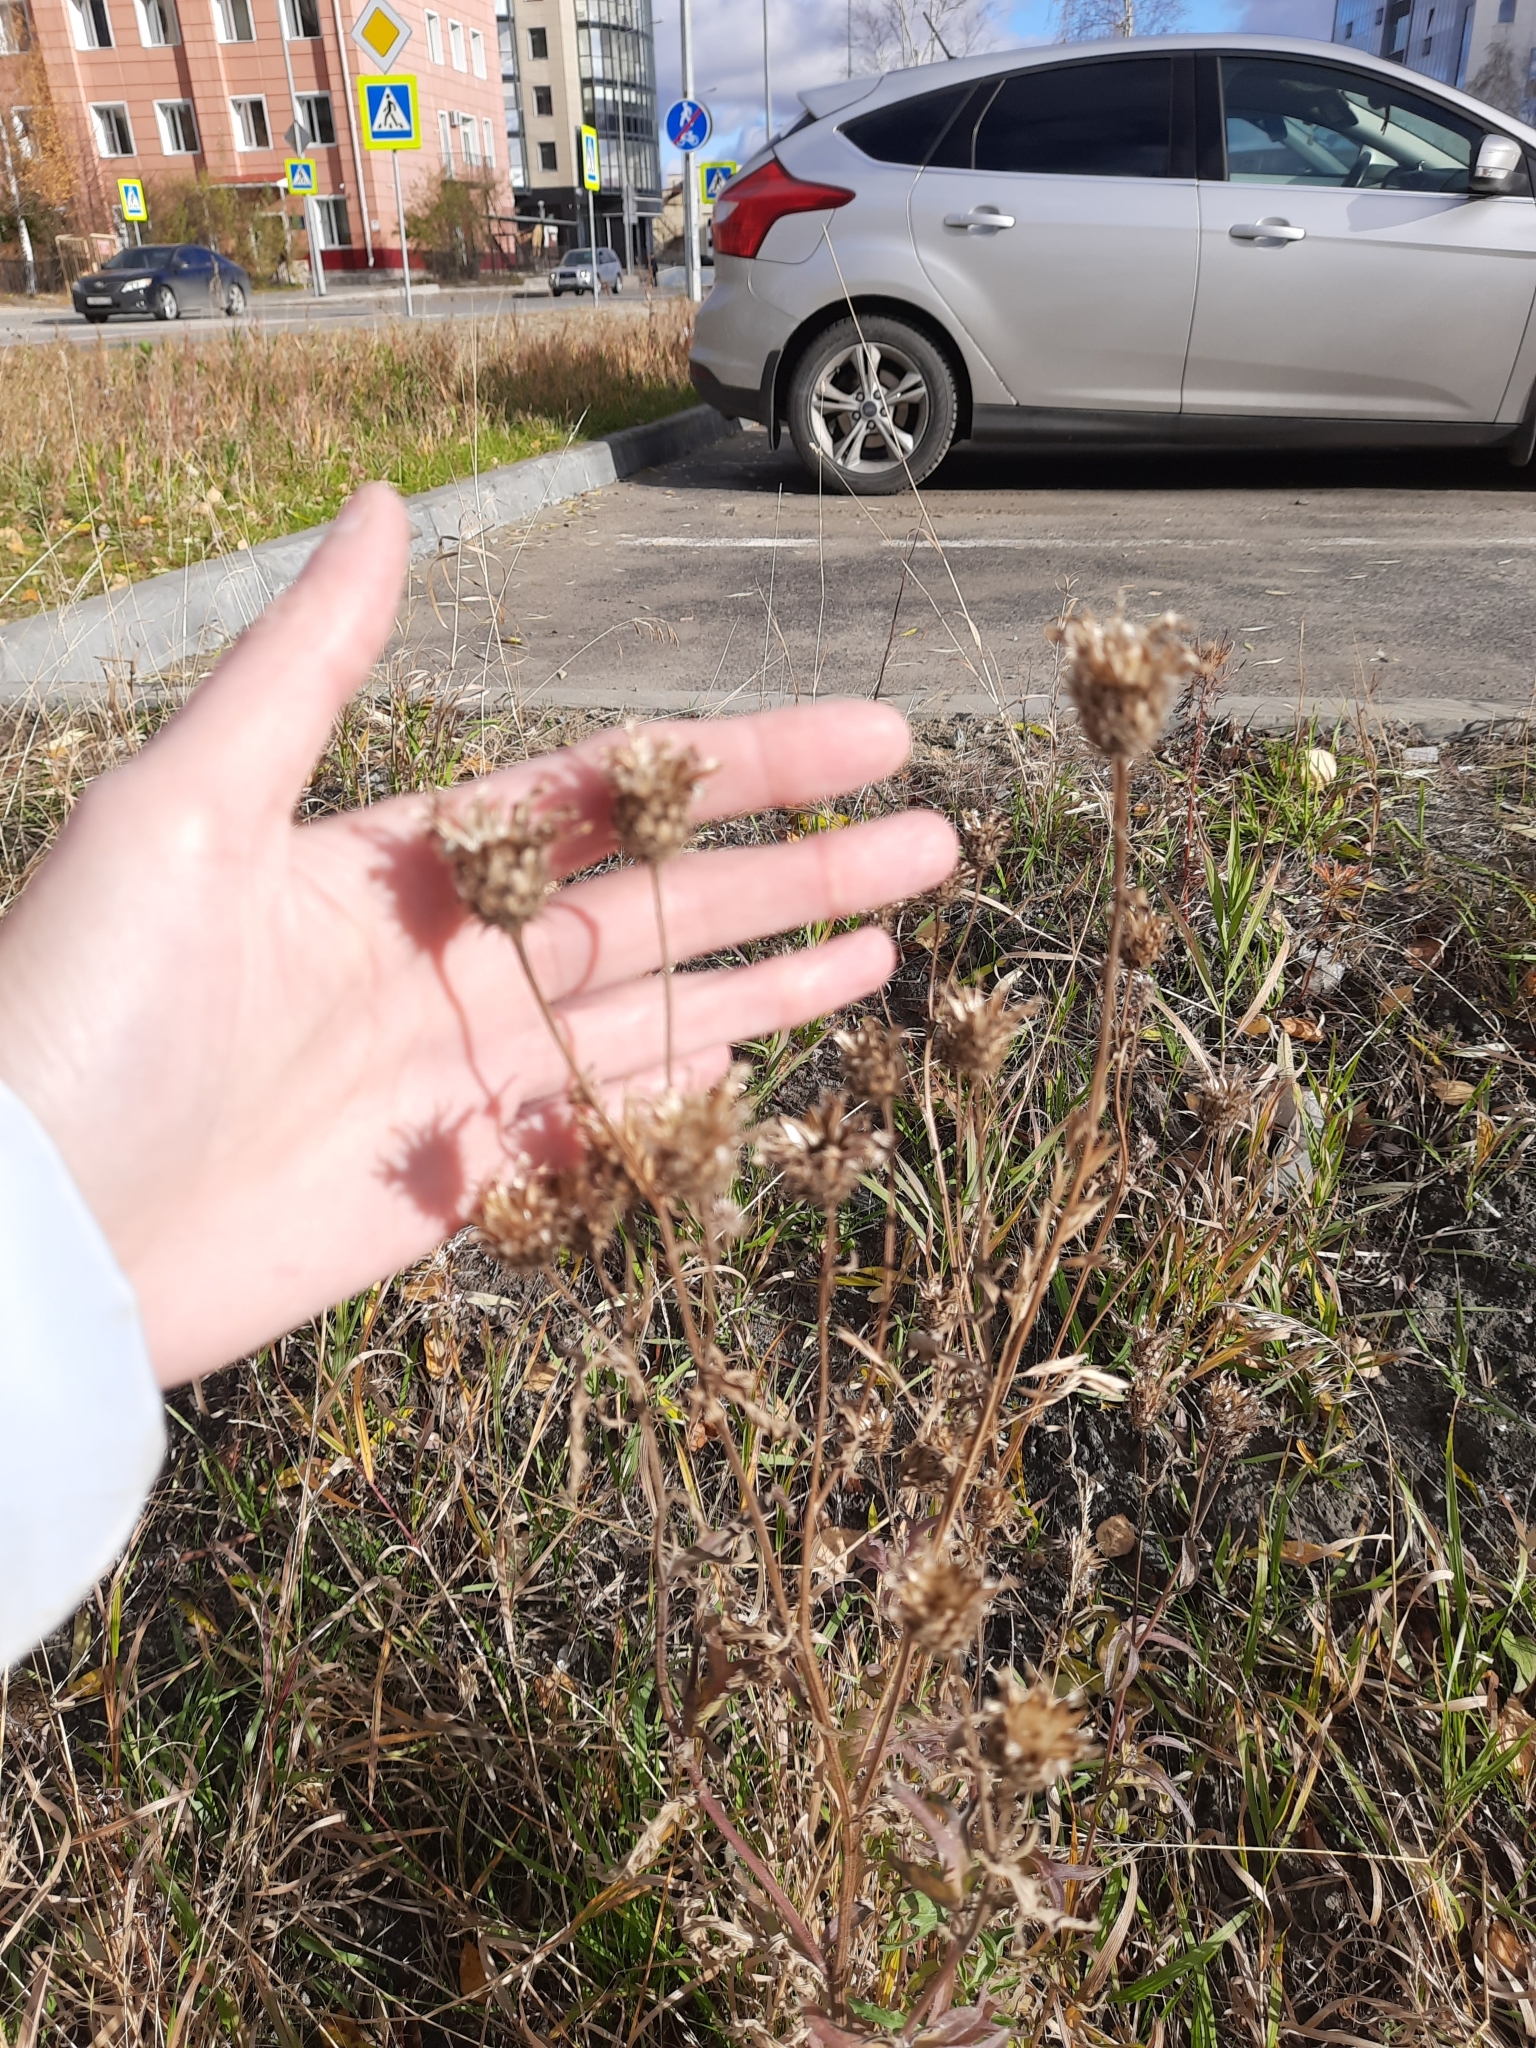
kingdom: Plantae
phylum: Tracheophyta
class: Magnoliopsida
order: Asterales
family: Asteraceae
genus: Centaurea
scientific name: Centaurea scabiosa
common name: Greater knapweed
